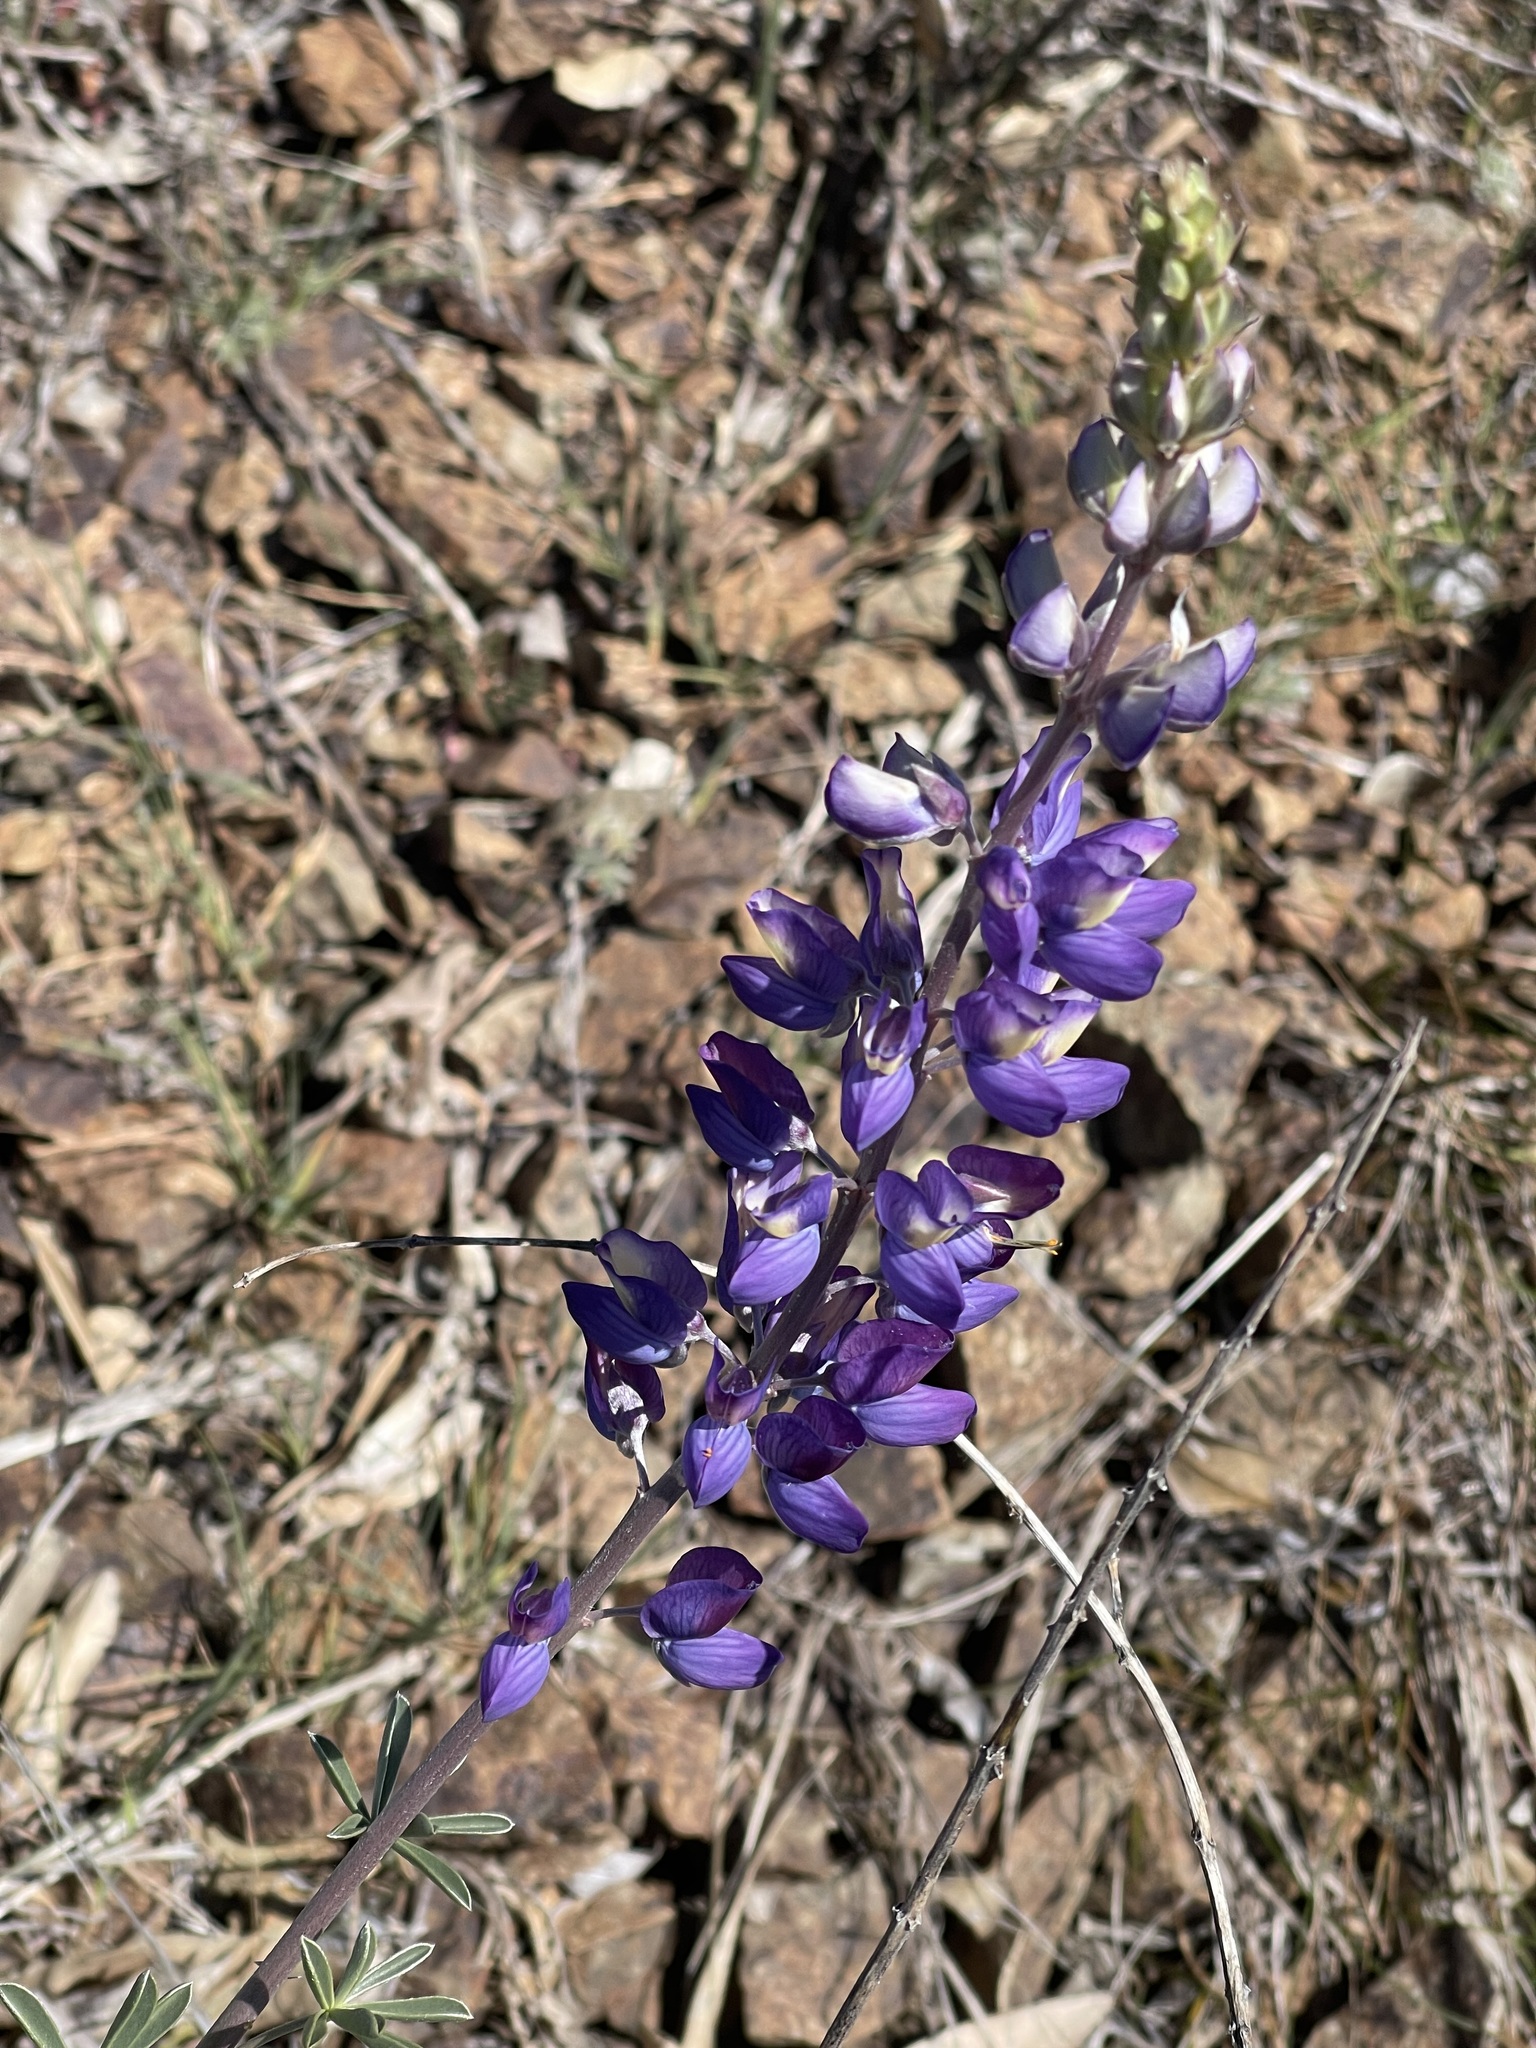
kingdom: Plantae
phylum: Tracheophyta
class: Magnoliopsida
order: Fabales
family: Fabaceae
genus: Lupinus
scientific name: Lupinus albifrons
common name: Foothill lupine
